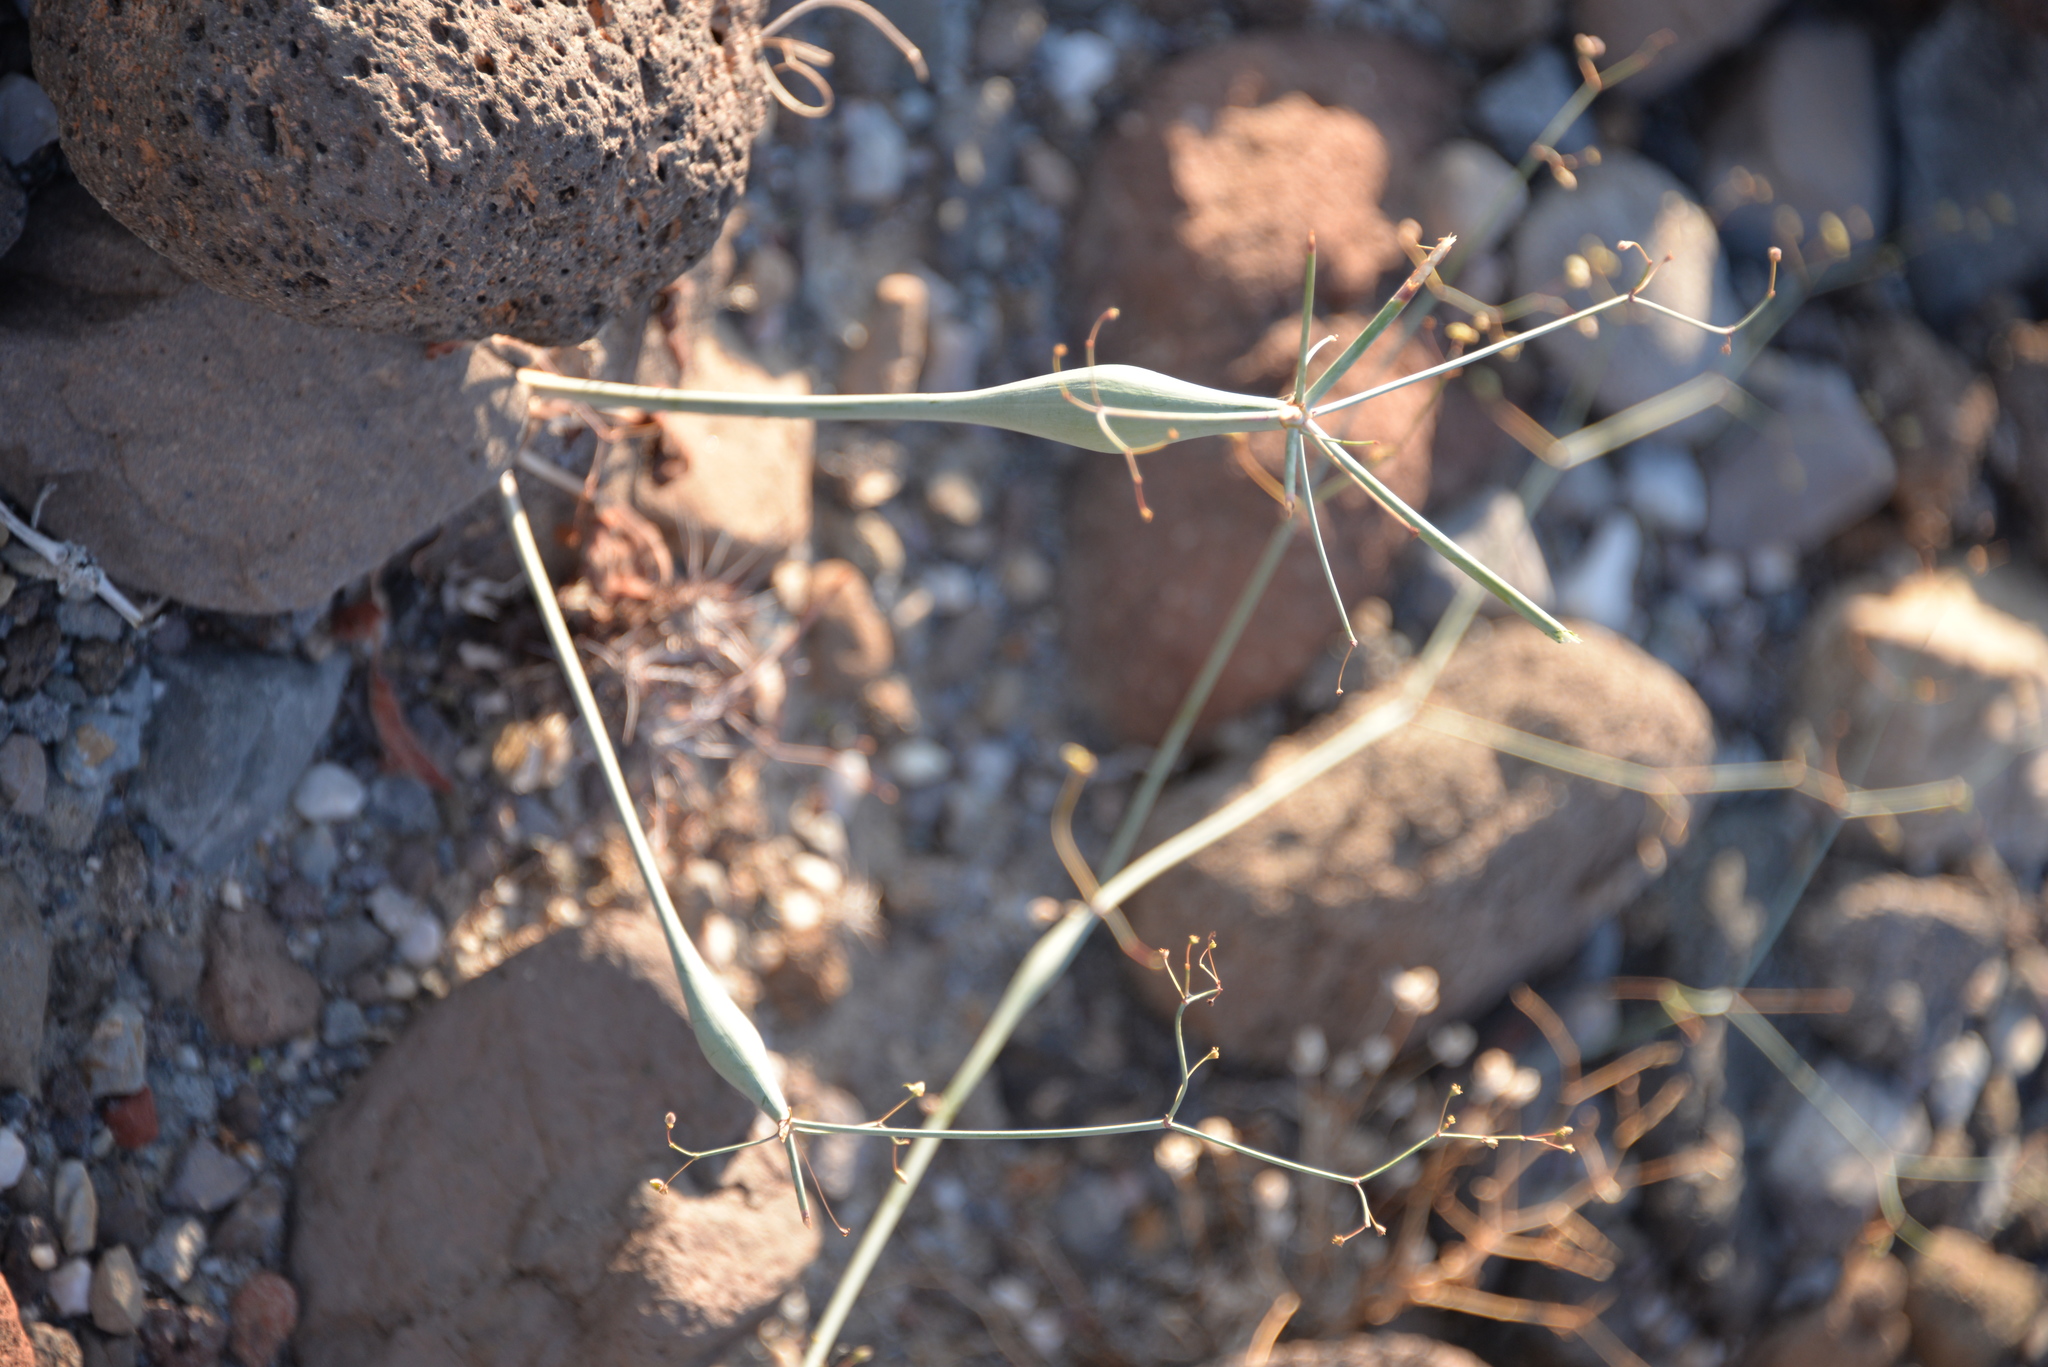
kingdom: Plantae
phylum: Tracheophyta
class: Magnoliopsida
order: Caryophyllales
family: Polygonaceae
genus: Eriogonum
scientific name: Eriogonum inflatum
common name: Desert trumpet
